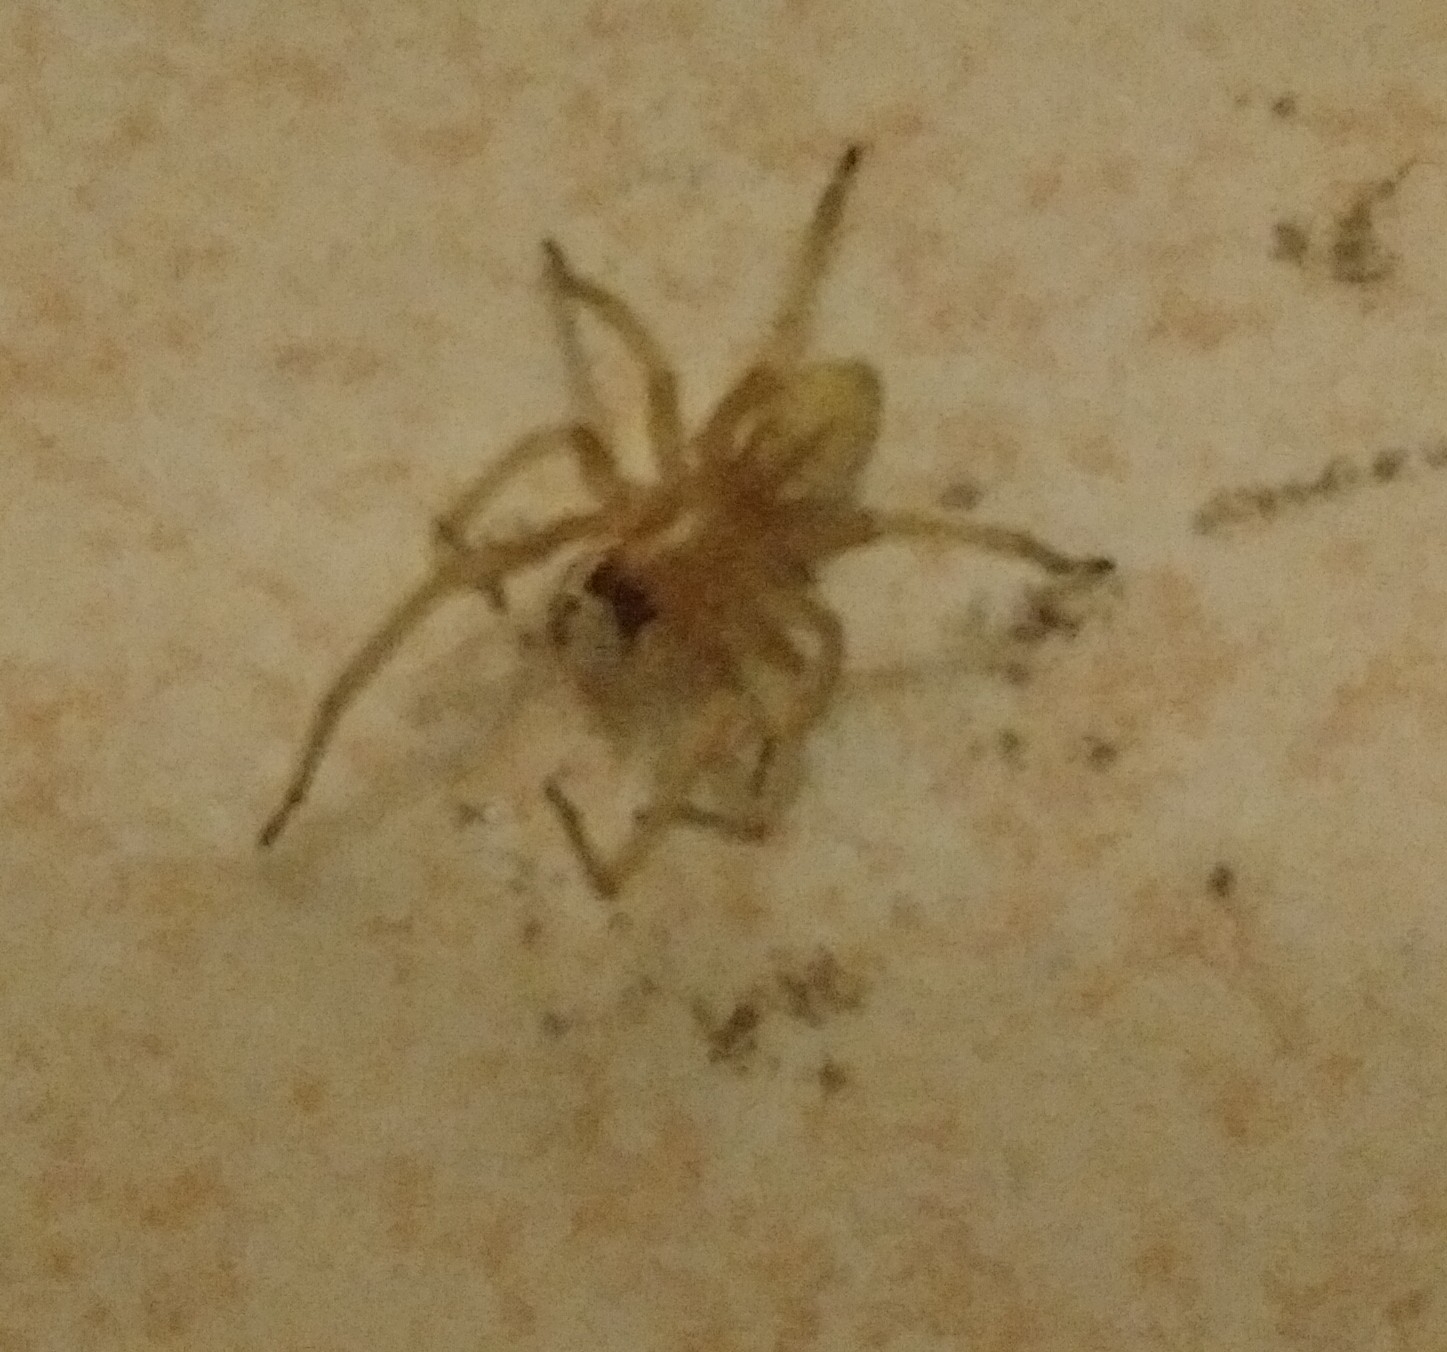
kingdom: Animalia
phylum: Arthropoda
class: Arachnida
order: Araneae
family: Cheiracanthiidae
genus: Cheiracanthium
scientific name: Cheiracanthium mildei
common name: Northern yellow sac spider
